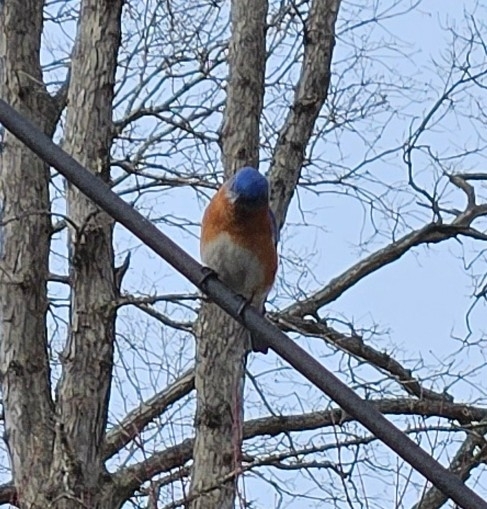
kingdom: Animalia
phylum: Chordata
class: Aves
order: Passeriformes
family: Turdidae
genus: Sialia
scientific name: Sialia sialis
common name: Eastern bluebird
